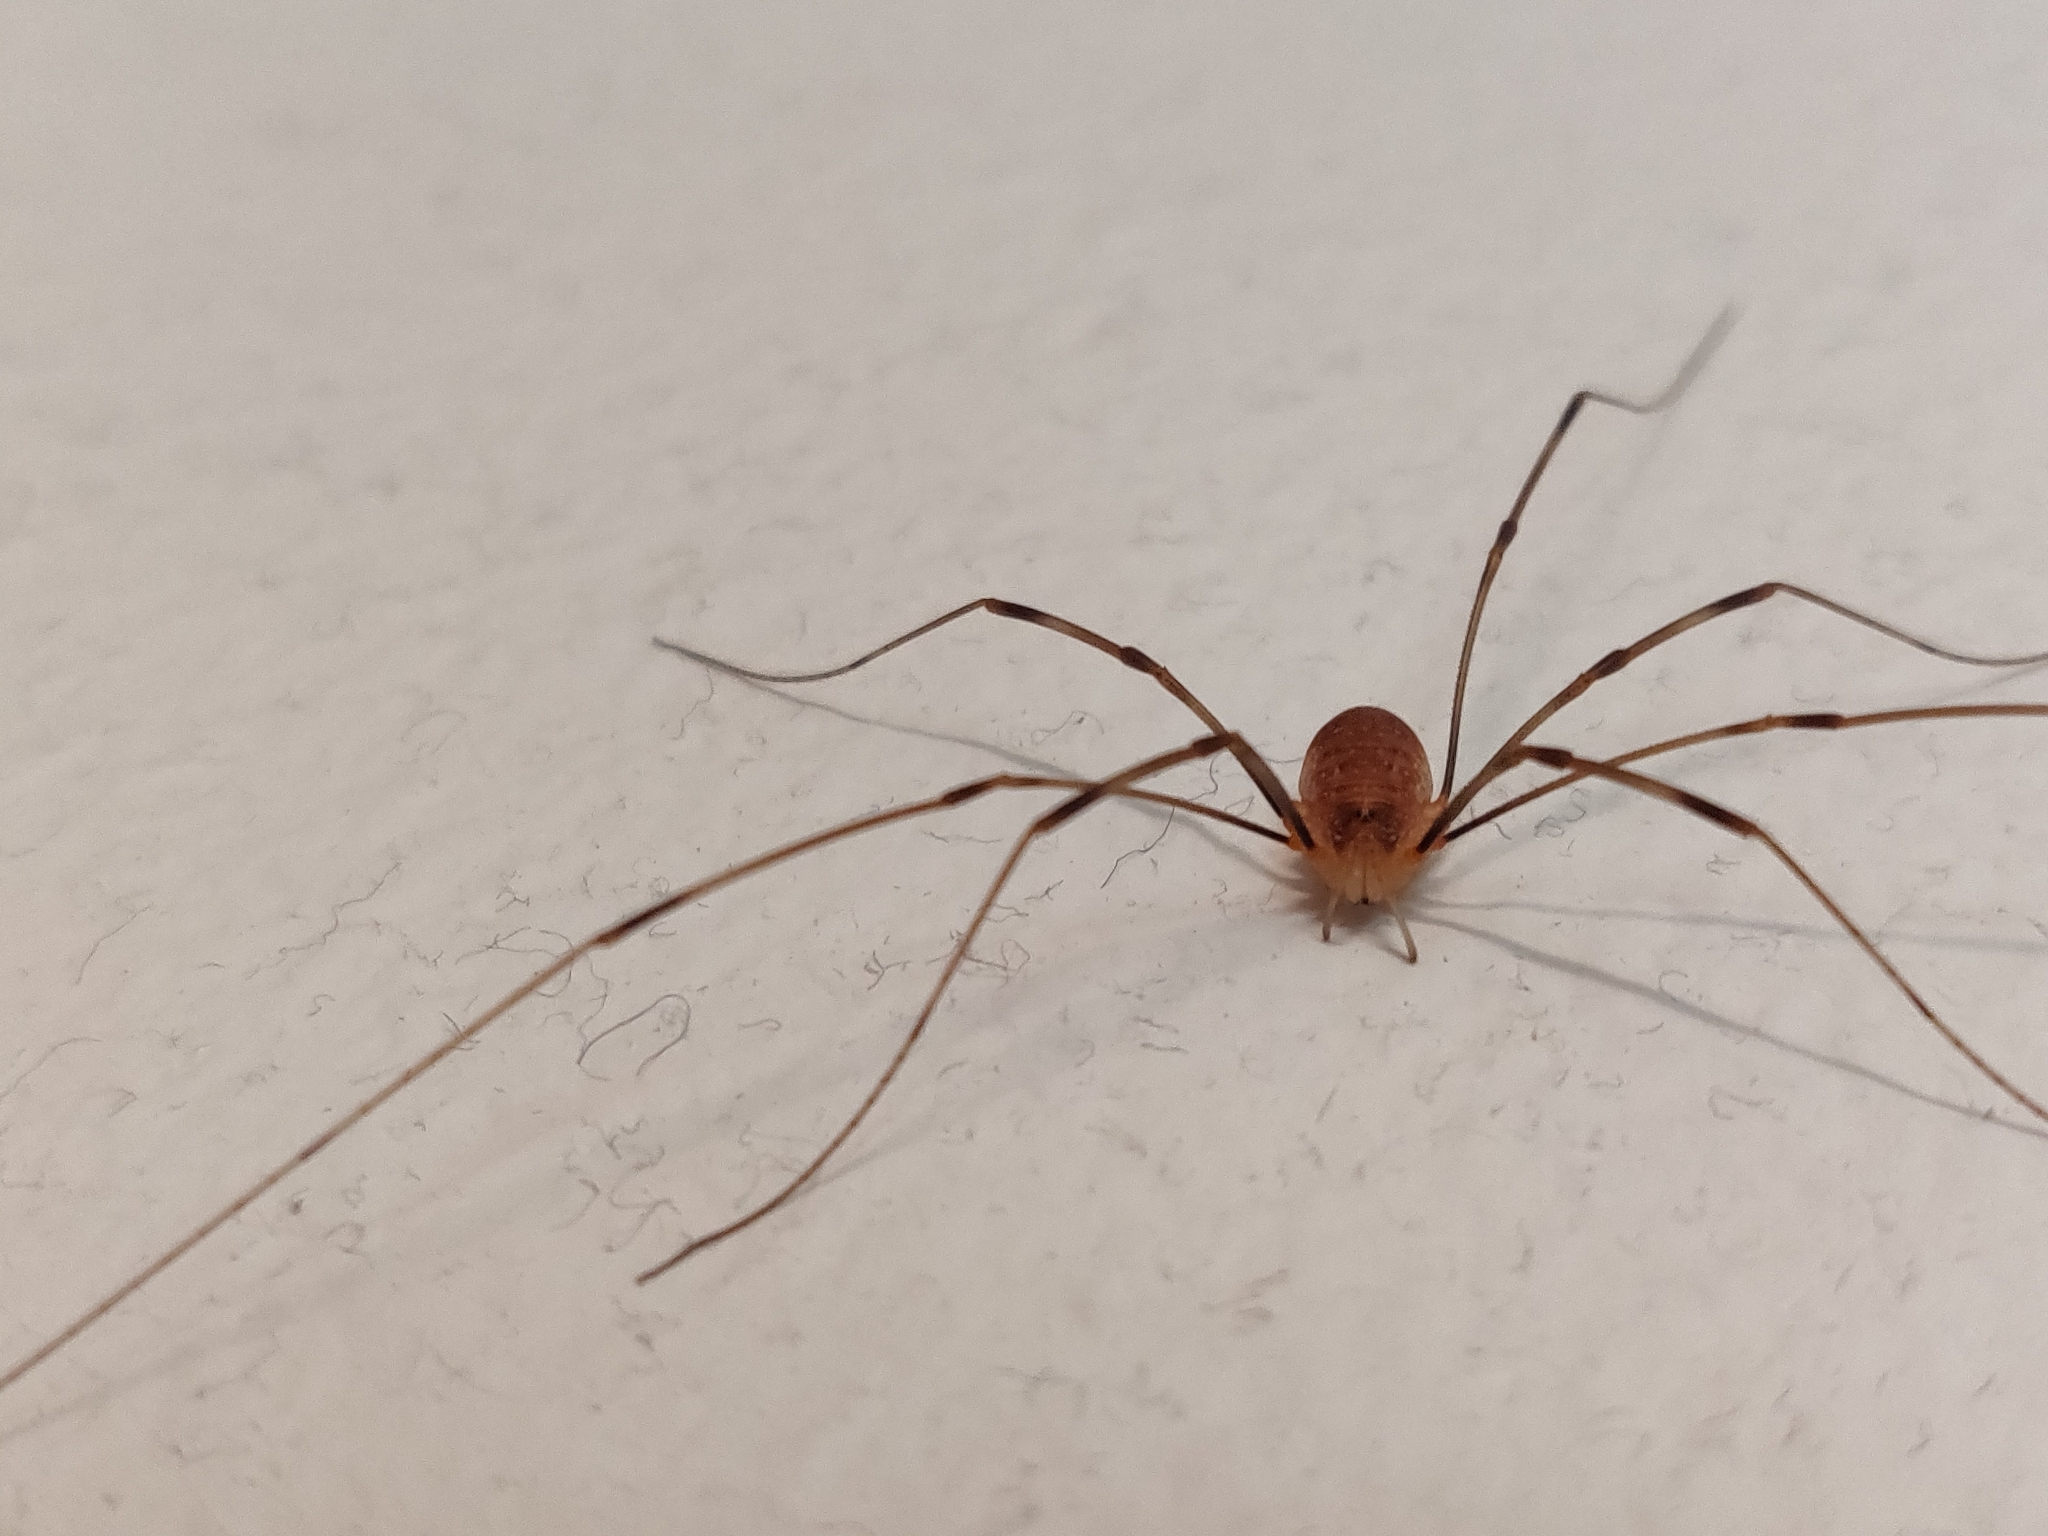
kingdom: Animalia
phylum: Arthropoda
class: Arachnida
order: Opiliones
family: Phalangiidae
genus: Opilio
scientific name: Opilio canestrinii
